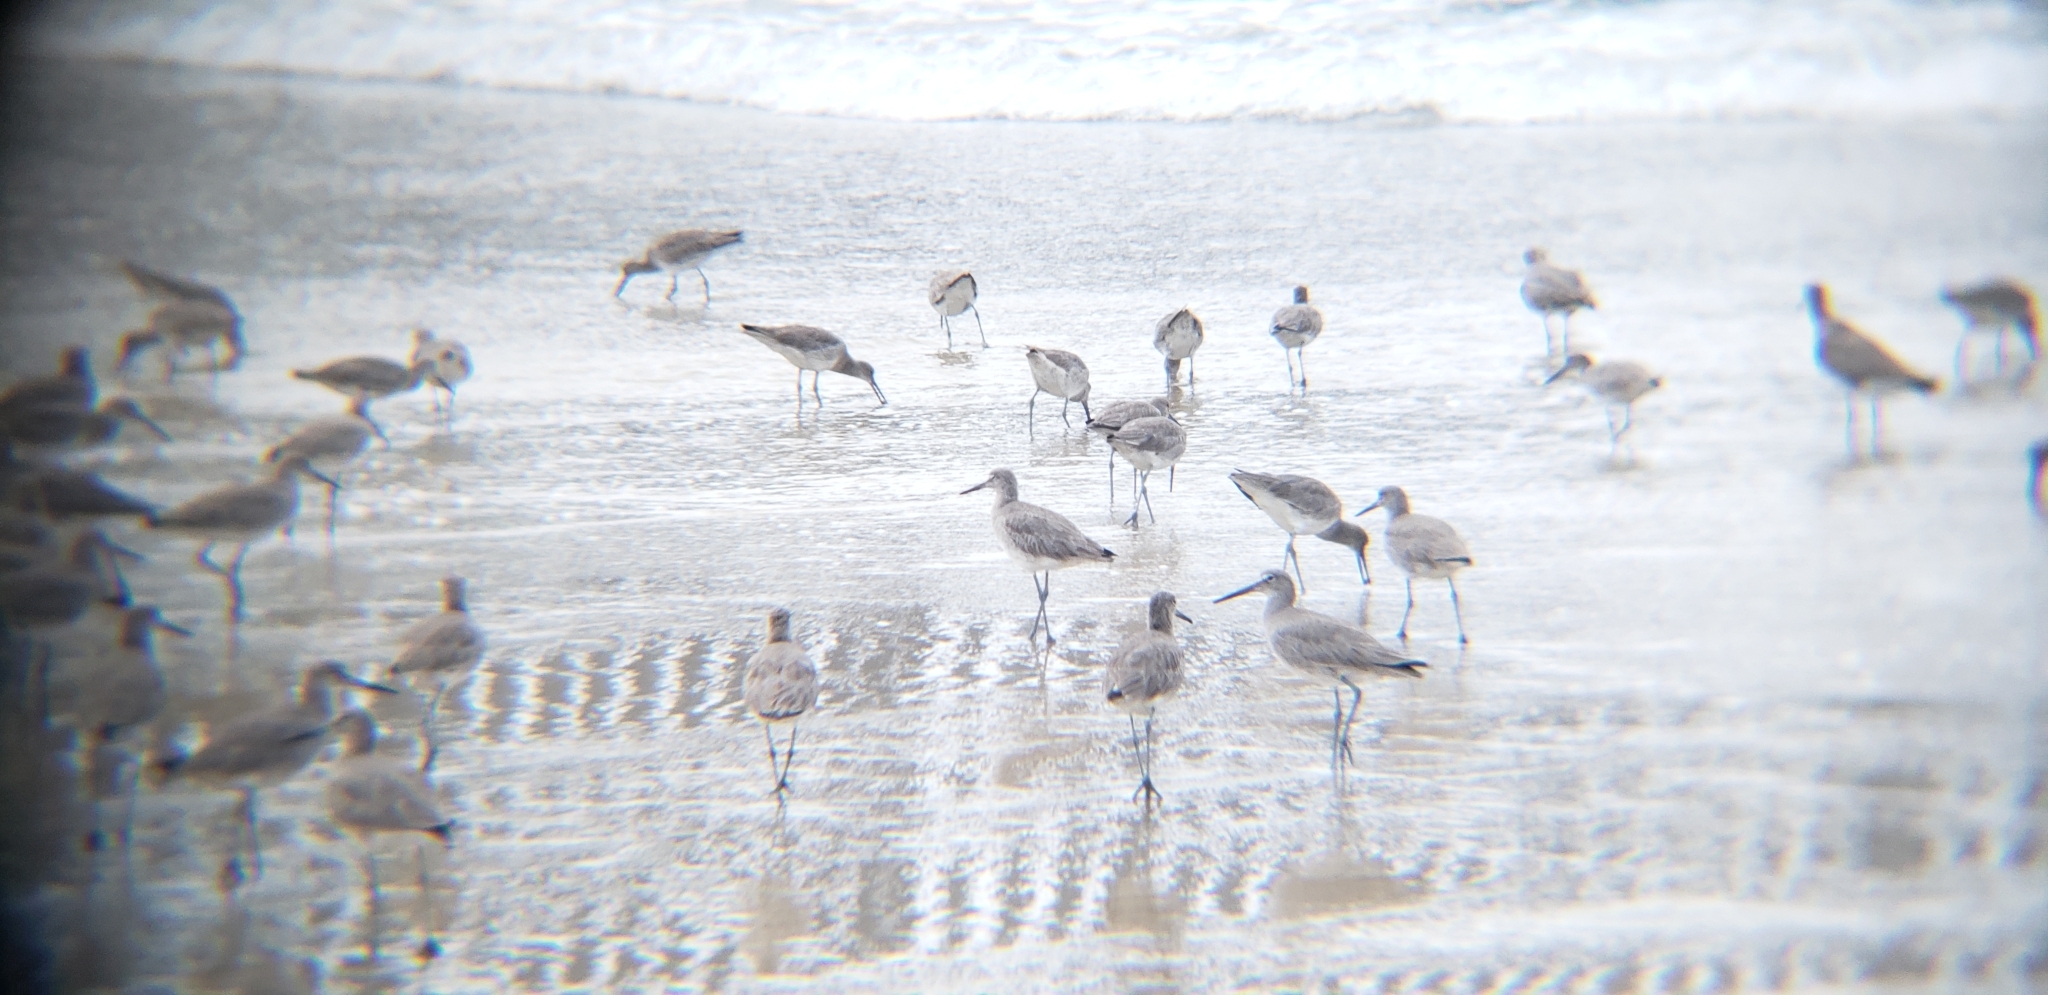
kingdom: Animalia
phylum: Chordata
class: Aves
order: Charadriiformes
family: Scolopacidae
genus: Tringa
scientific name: Tringa semipalmata
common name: Willet
